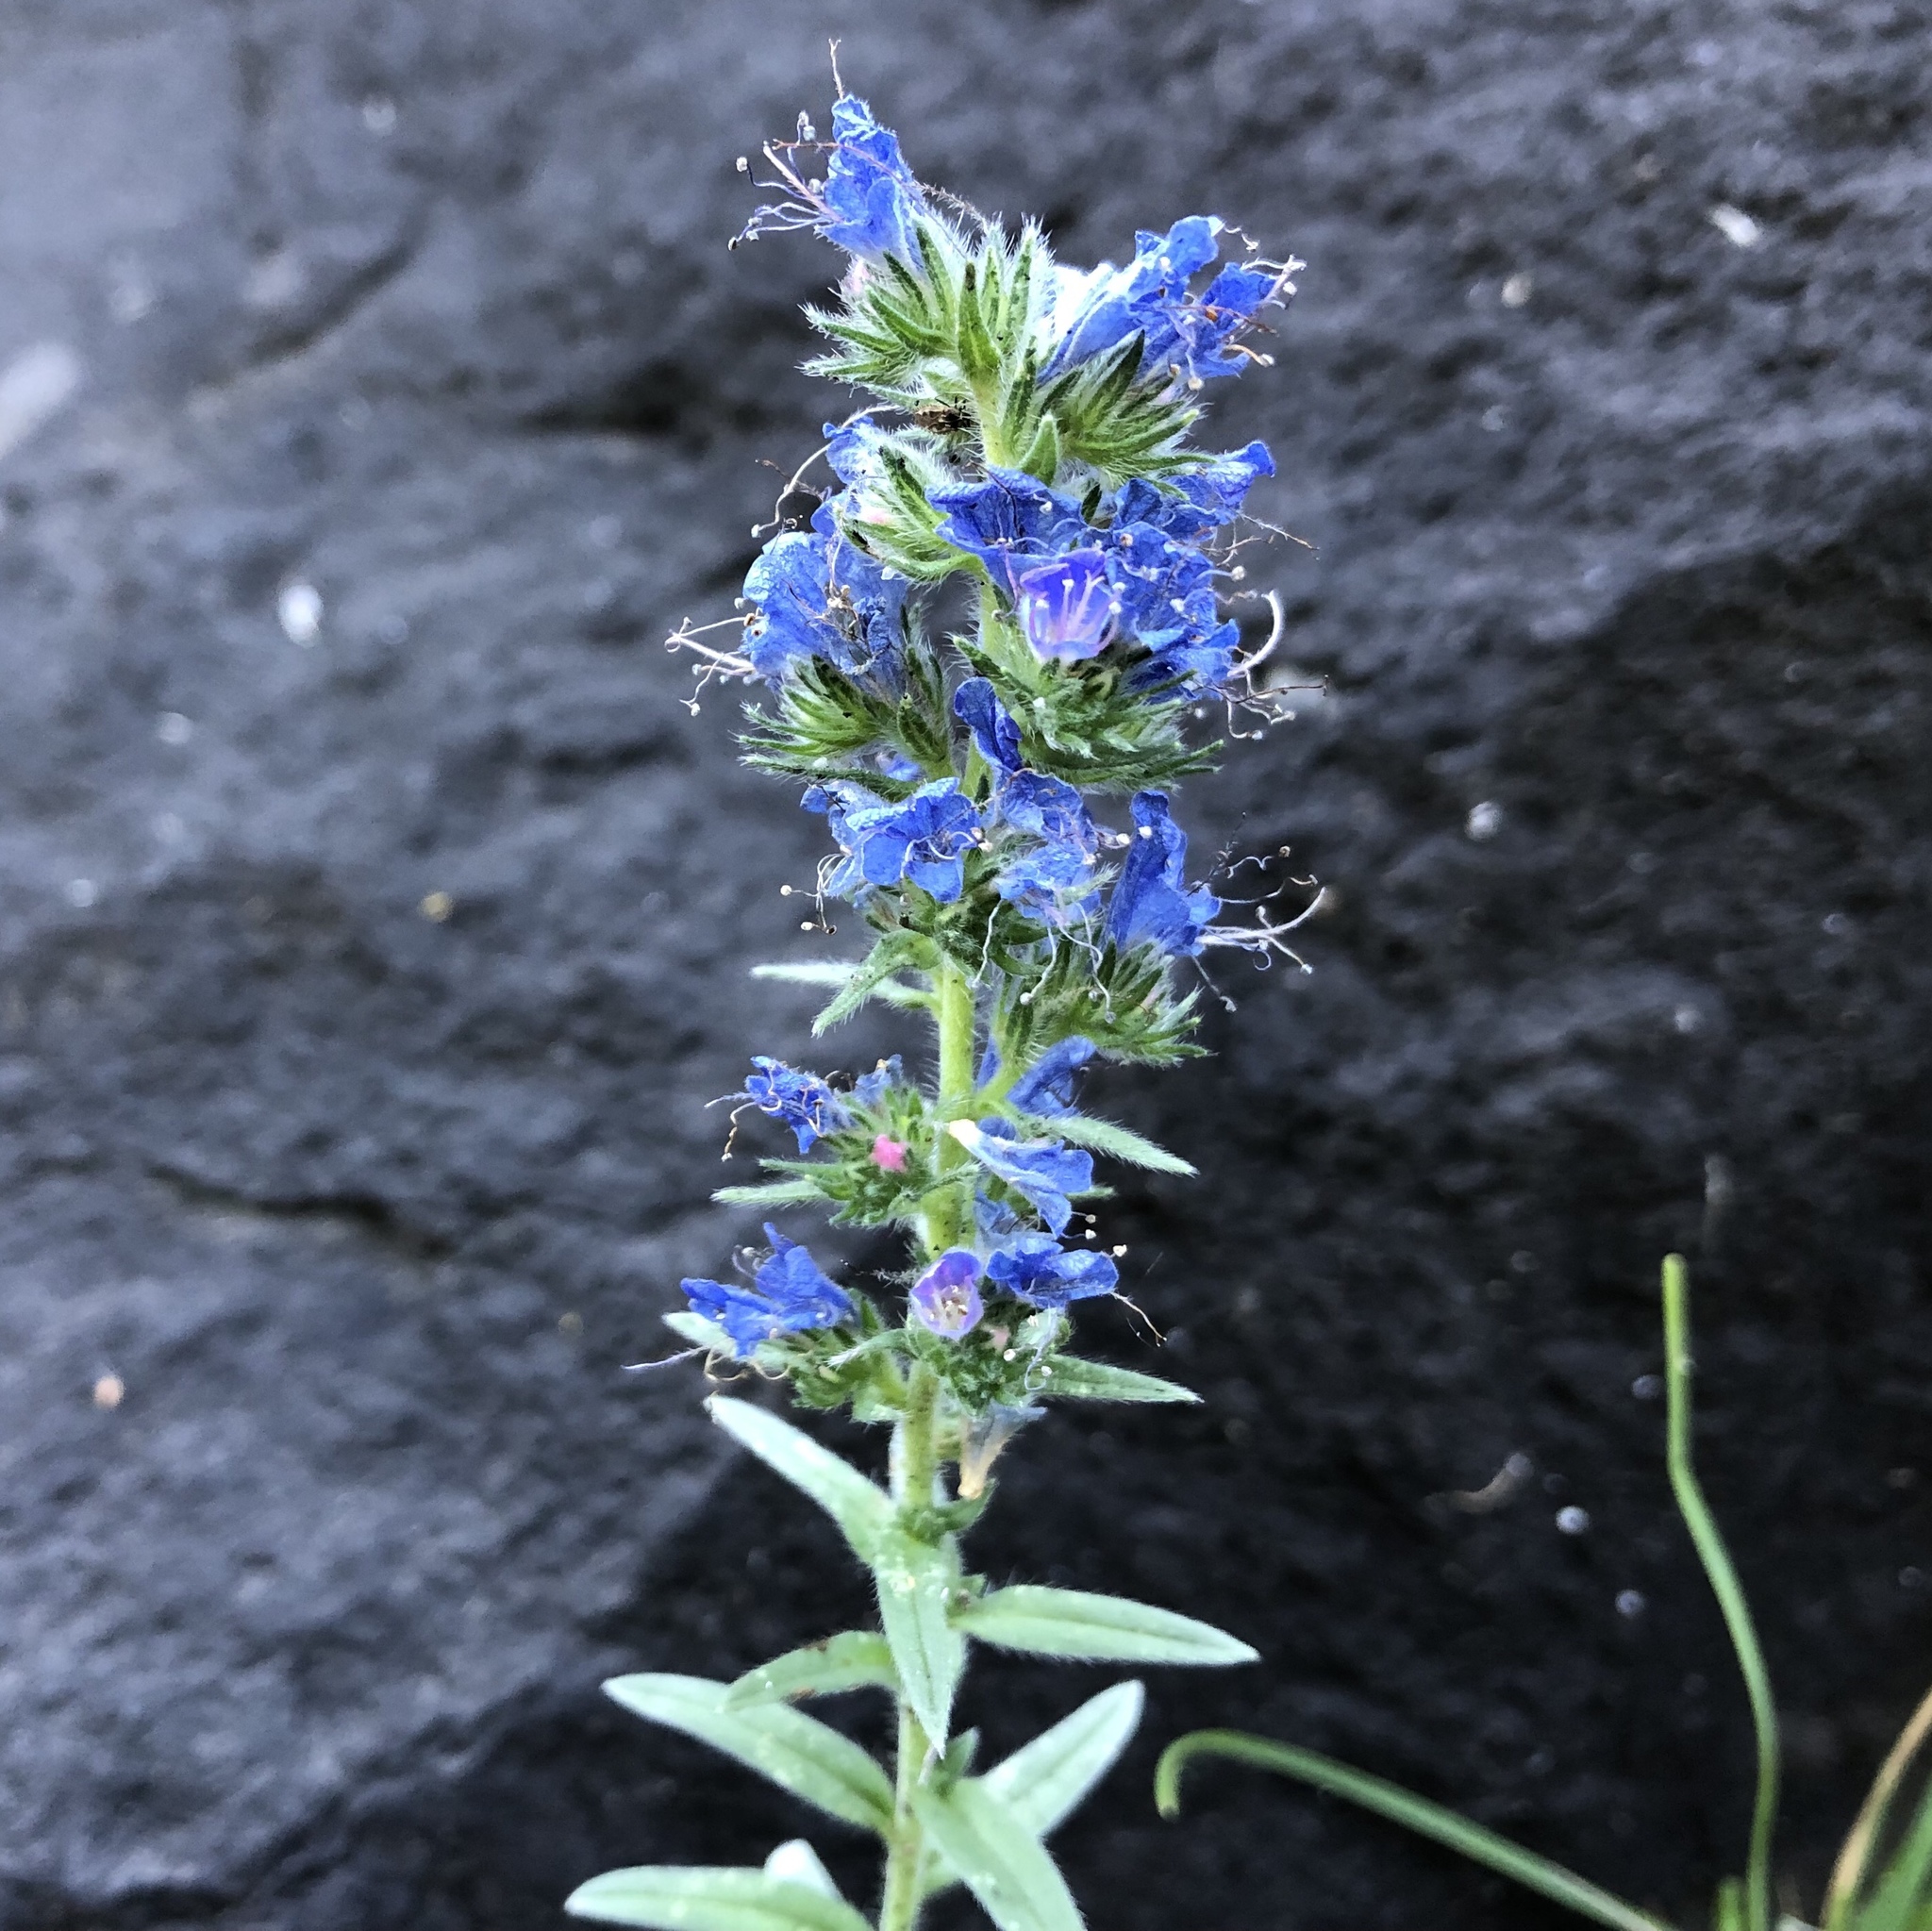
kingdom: Plantae
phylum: Tracheophyta
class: Magnoliopsida
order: Boraginales
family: Boraginaceae
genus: Echium
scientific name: Echium vulgare
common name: Common viper's bugloss
